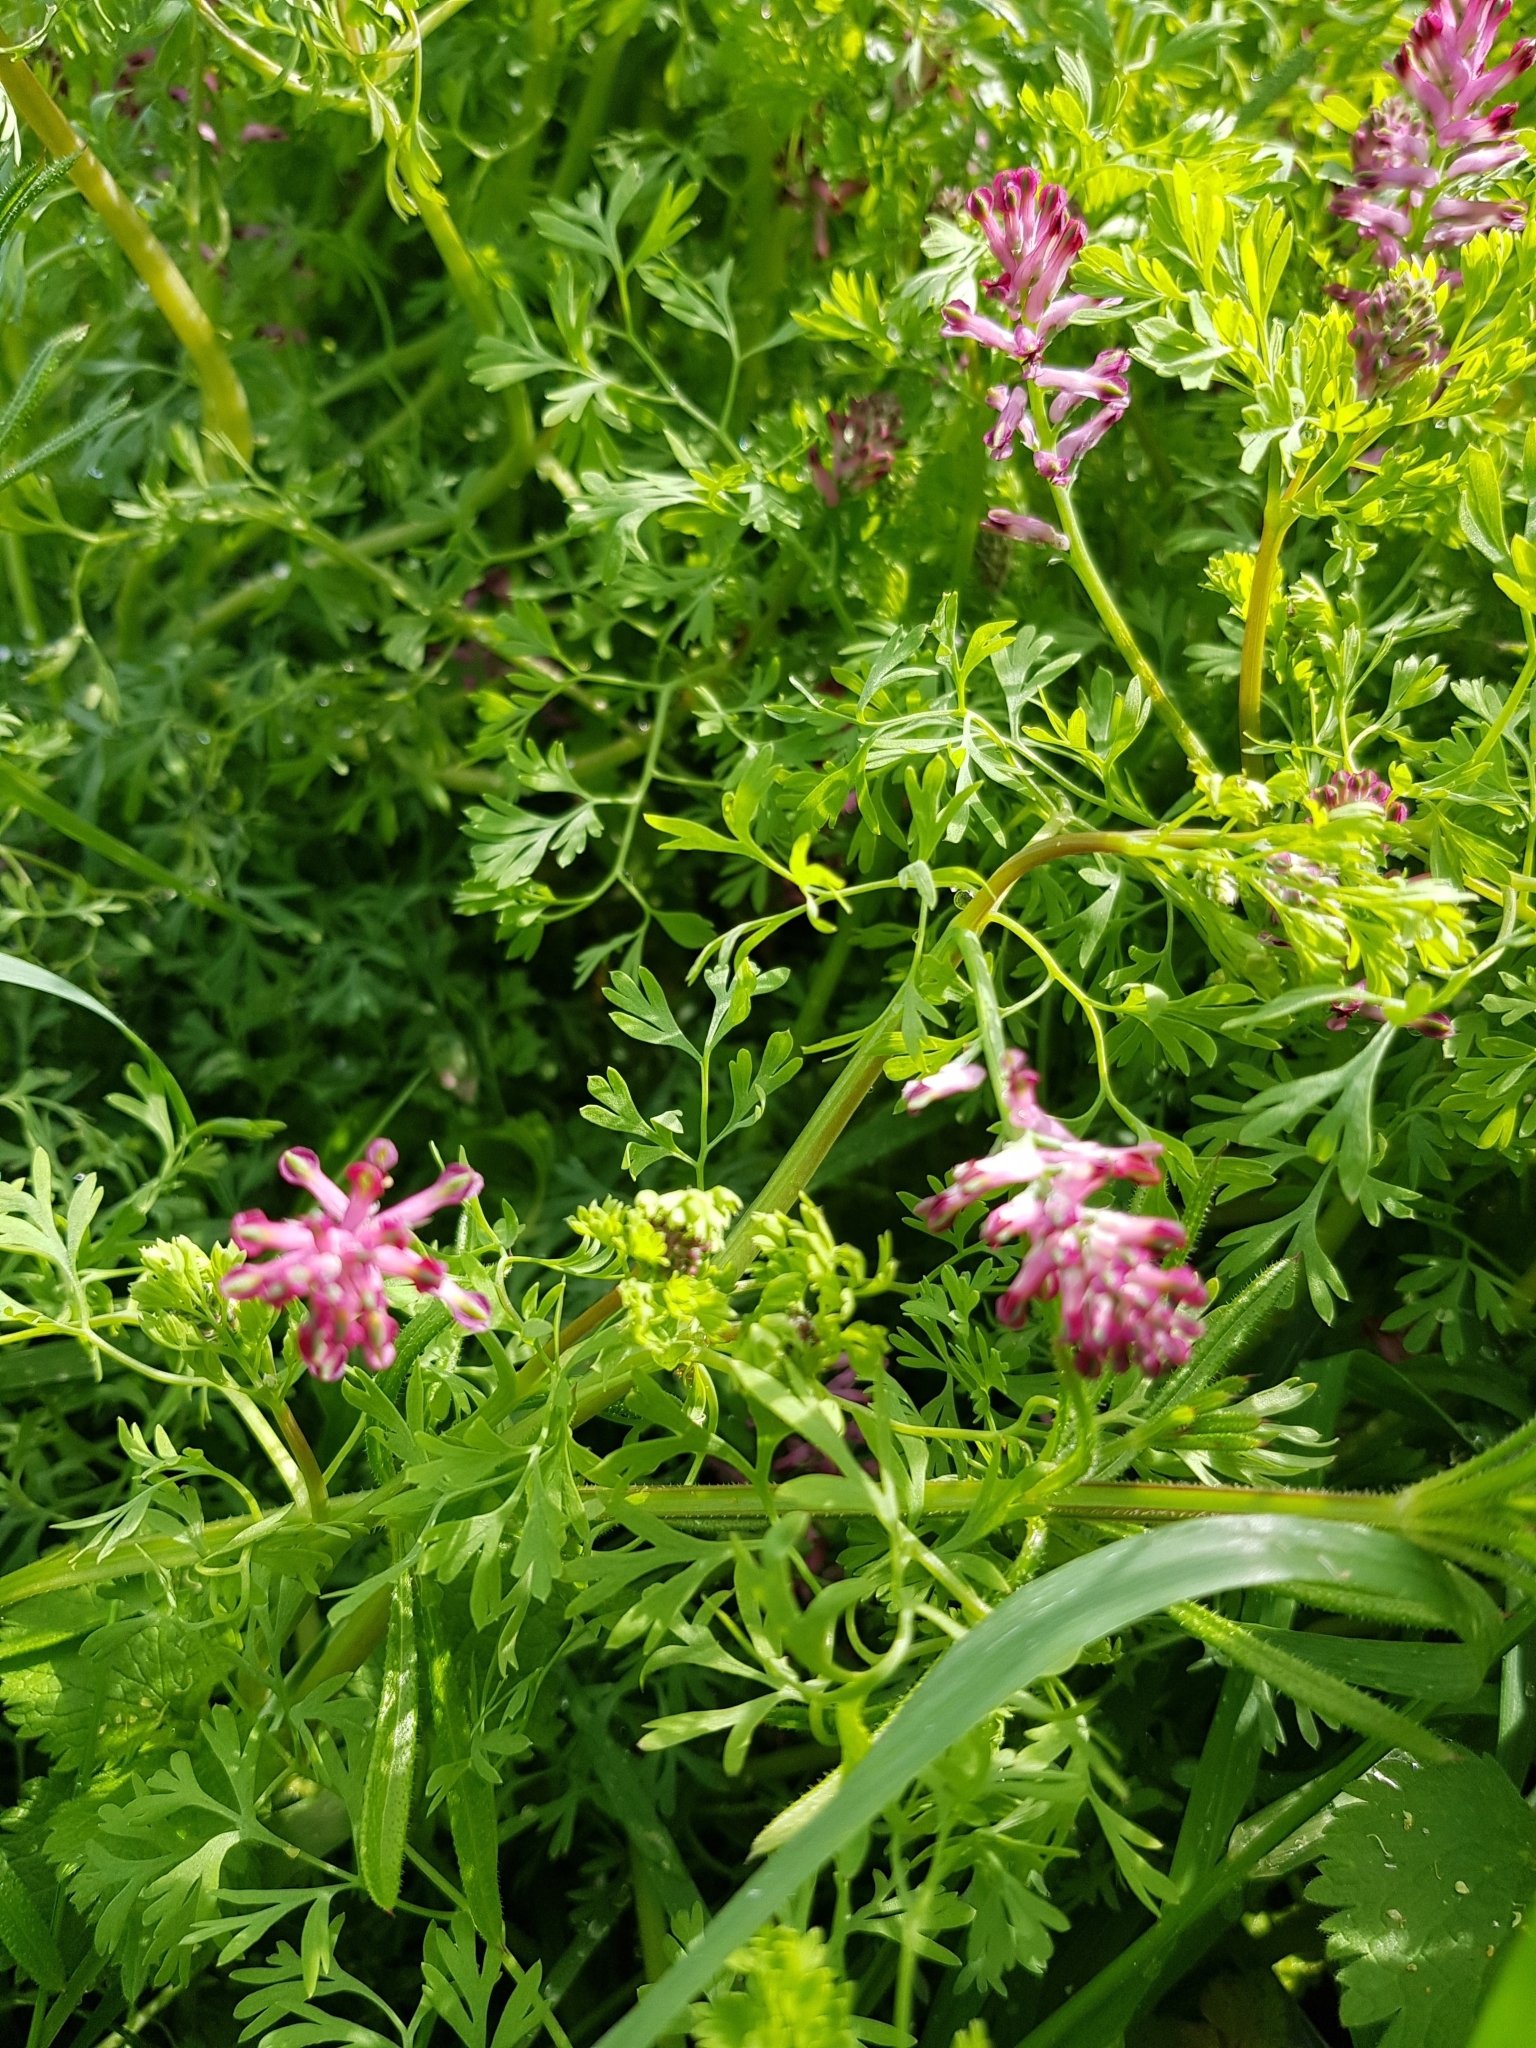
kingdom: Plantae
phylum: Tracheophyta
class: Magnoliopsida
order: Ranunculales
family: Papaveraceae
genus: Fumaria
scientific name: Fumaria officinalis
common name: Common fumitory
